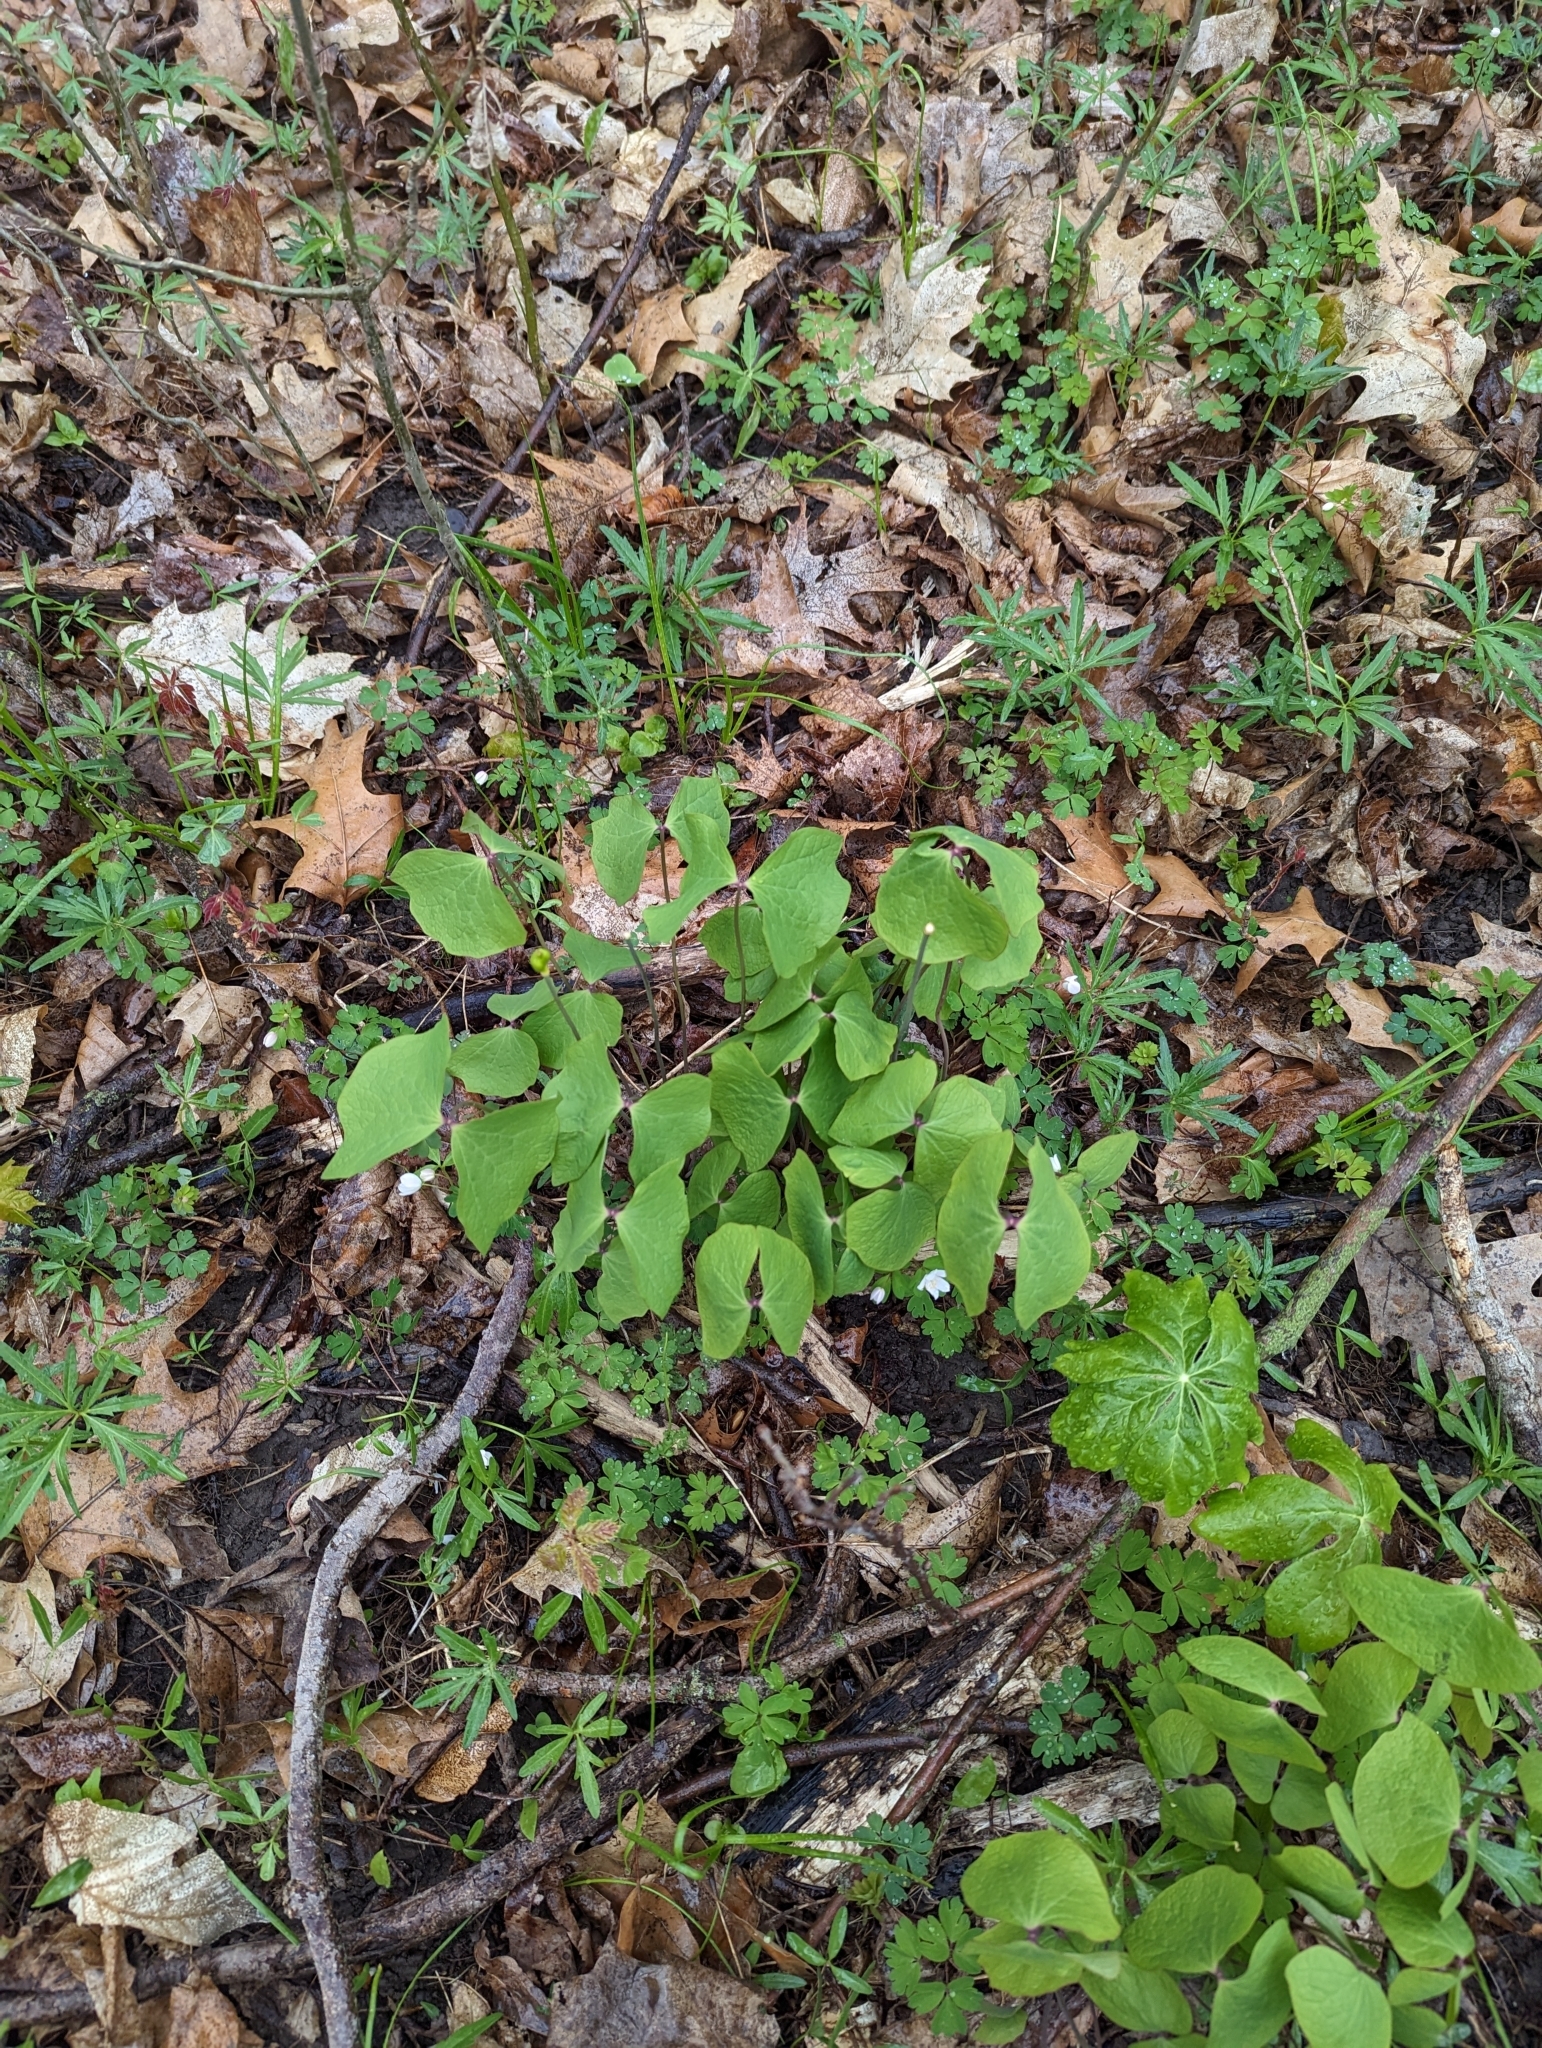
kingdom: Plantae
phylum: Tracheophyta
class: Magnoliopsida
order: Ranunculales
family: Berberidaceae
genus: Jeffersonia
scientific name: Jeffersonia diphylla
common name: Rheumatism-root
